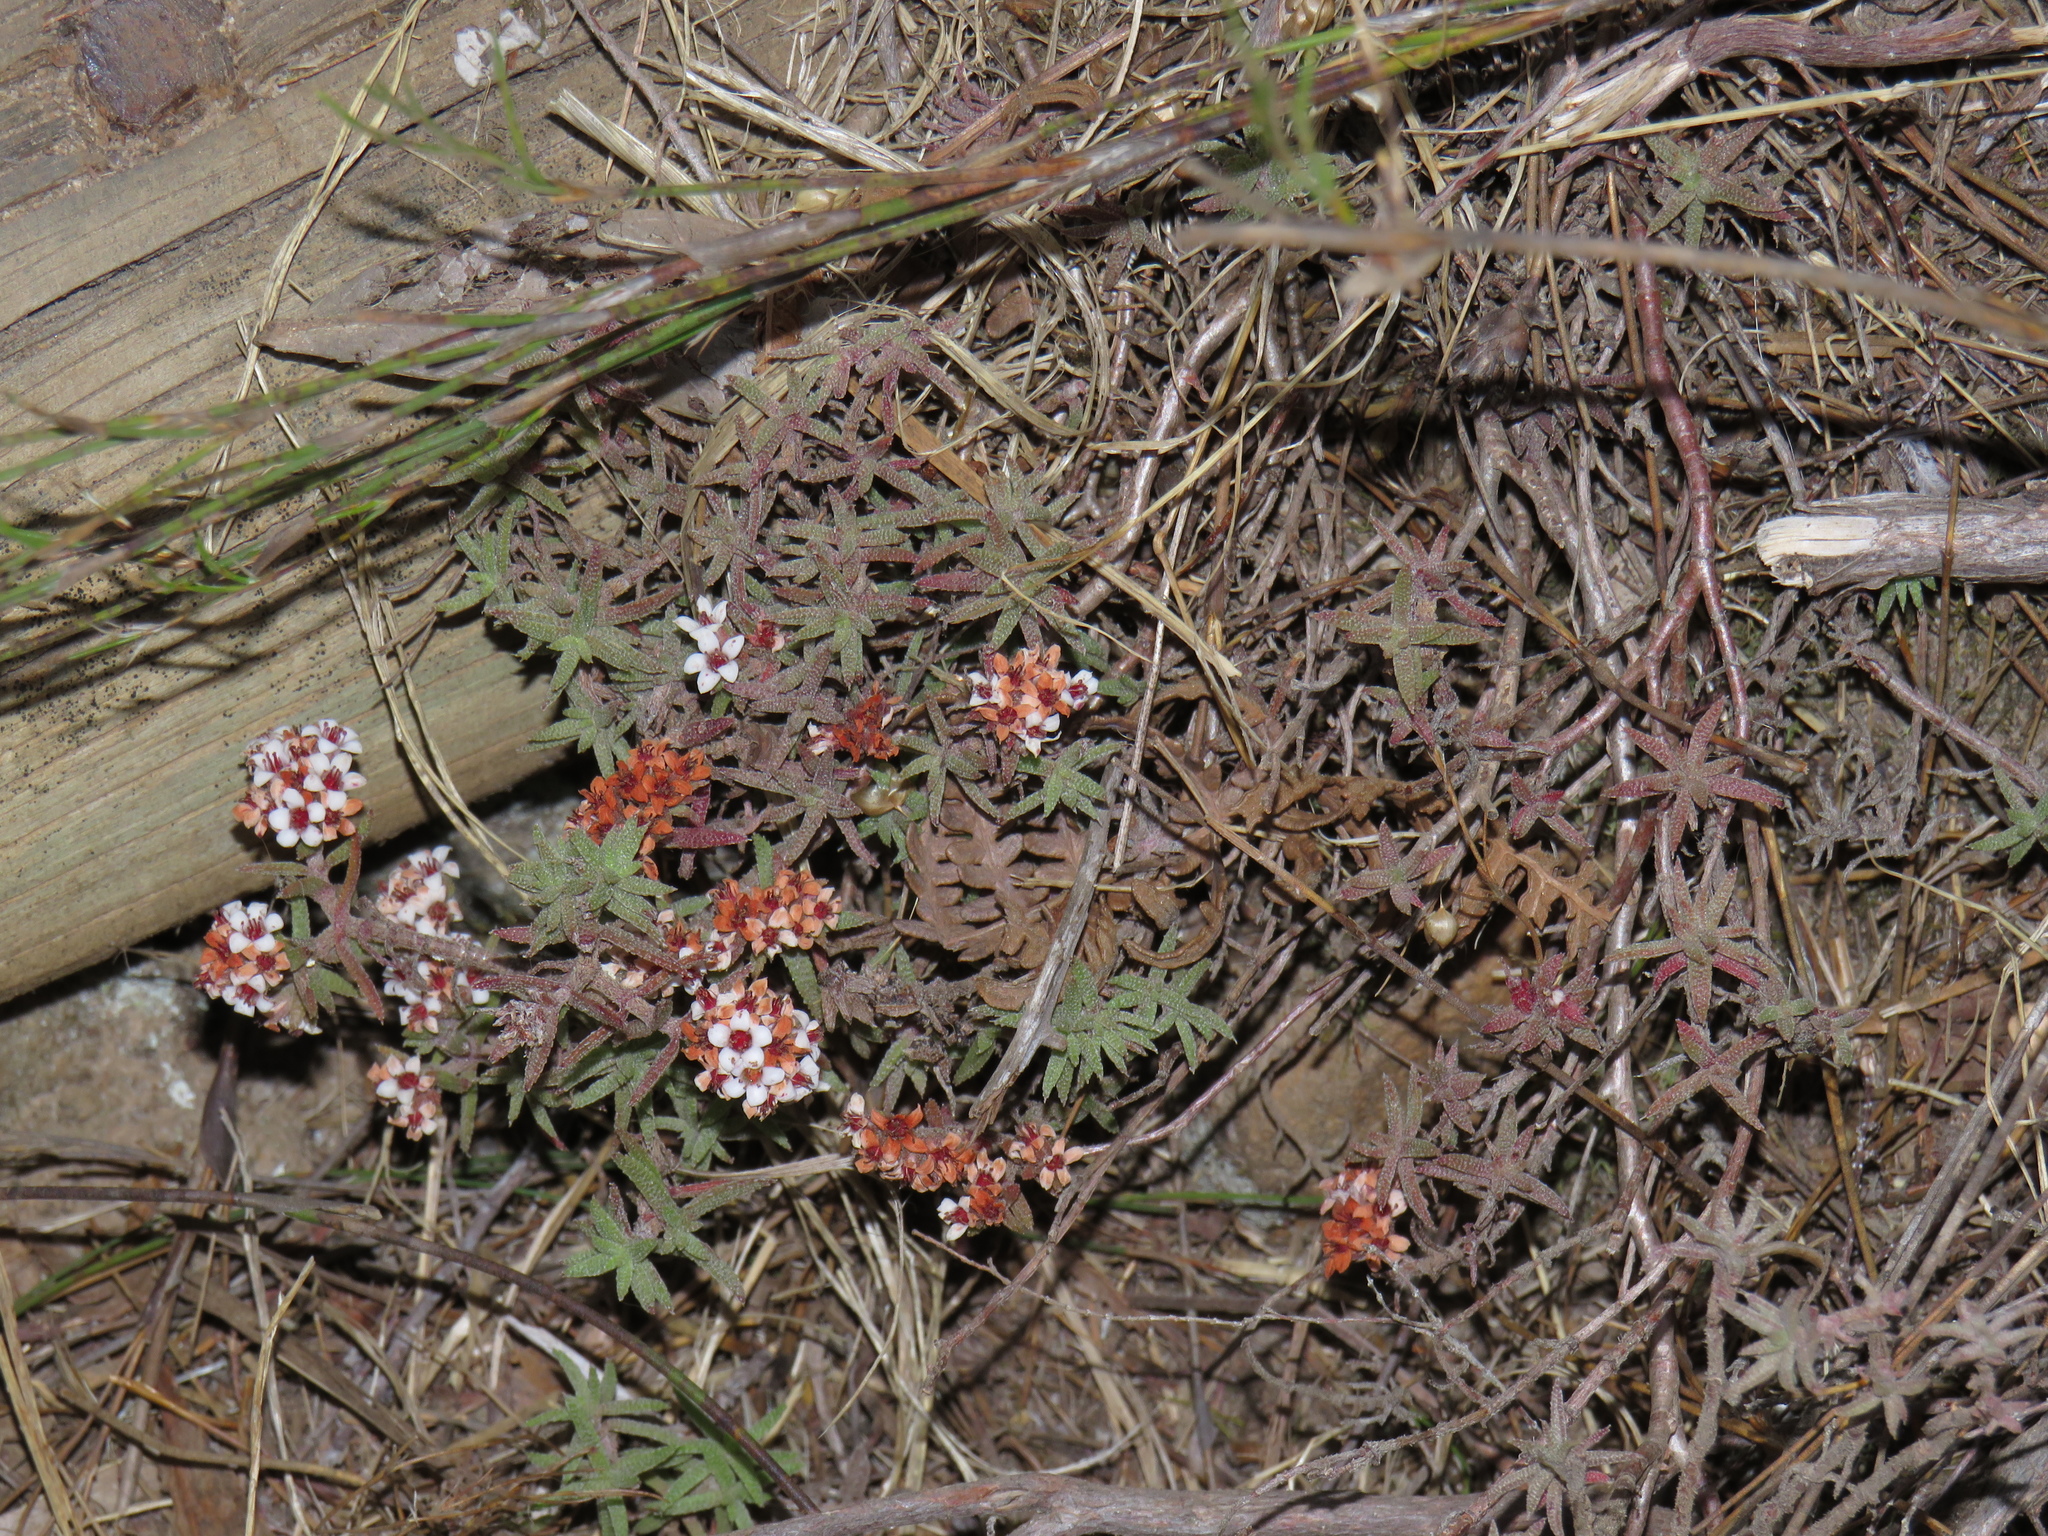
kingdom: Plantae
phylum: Tracheophyta
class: Magnoliopsida
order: Saxifragales
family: Crassulaceae
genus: Crassula
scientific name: Crassula pruinosa
